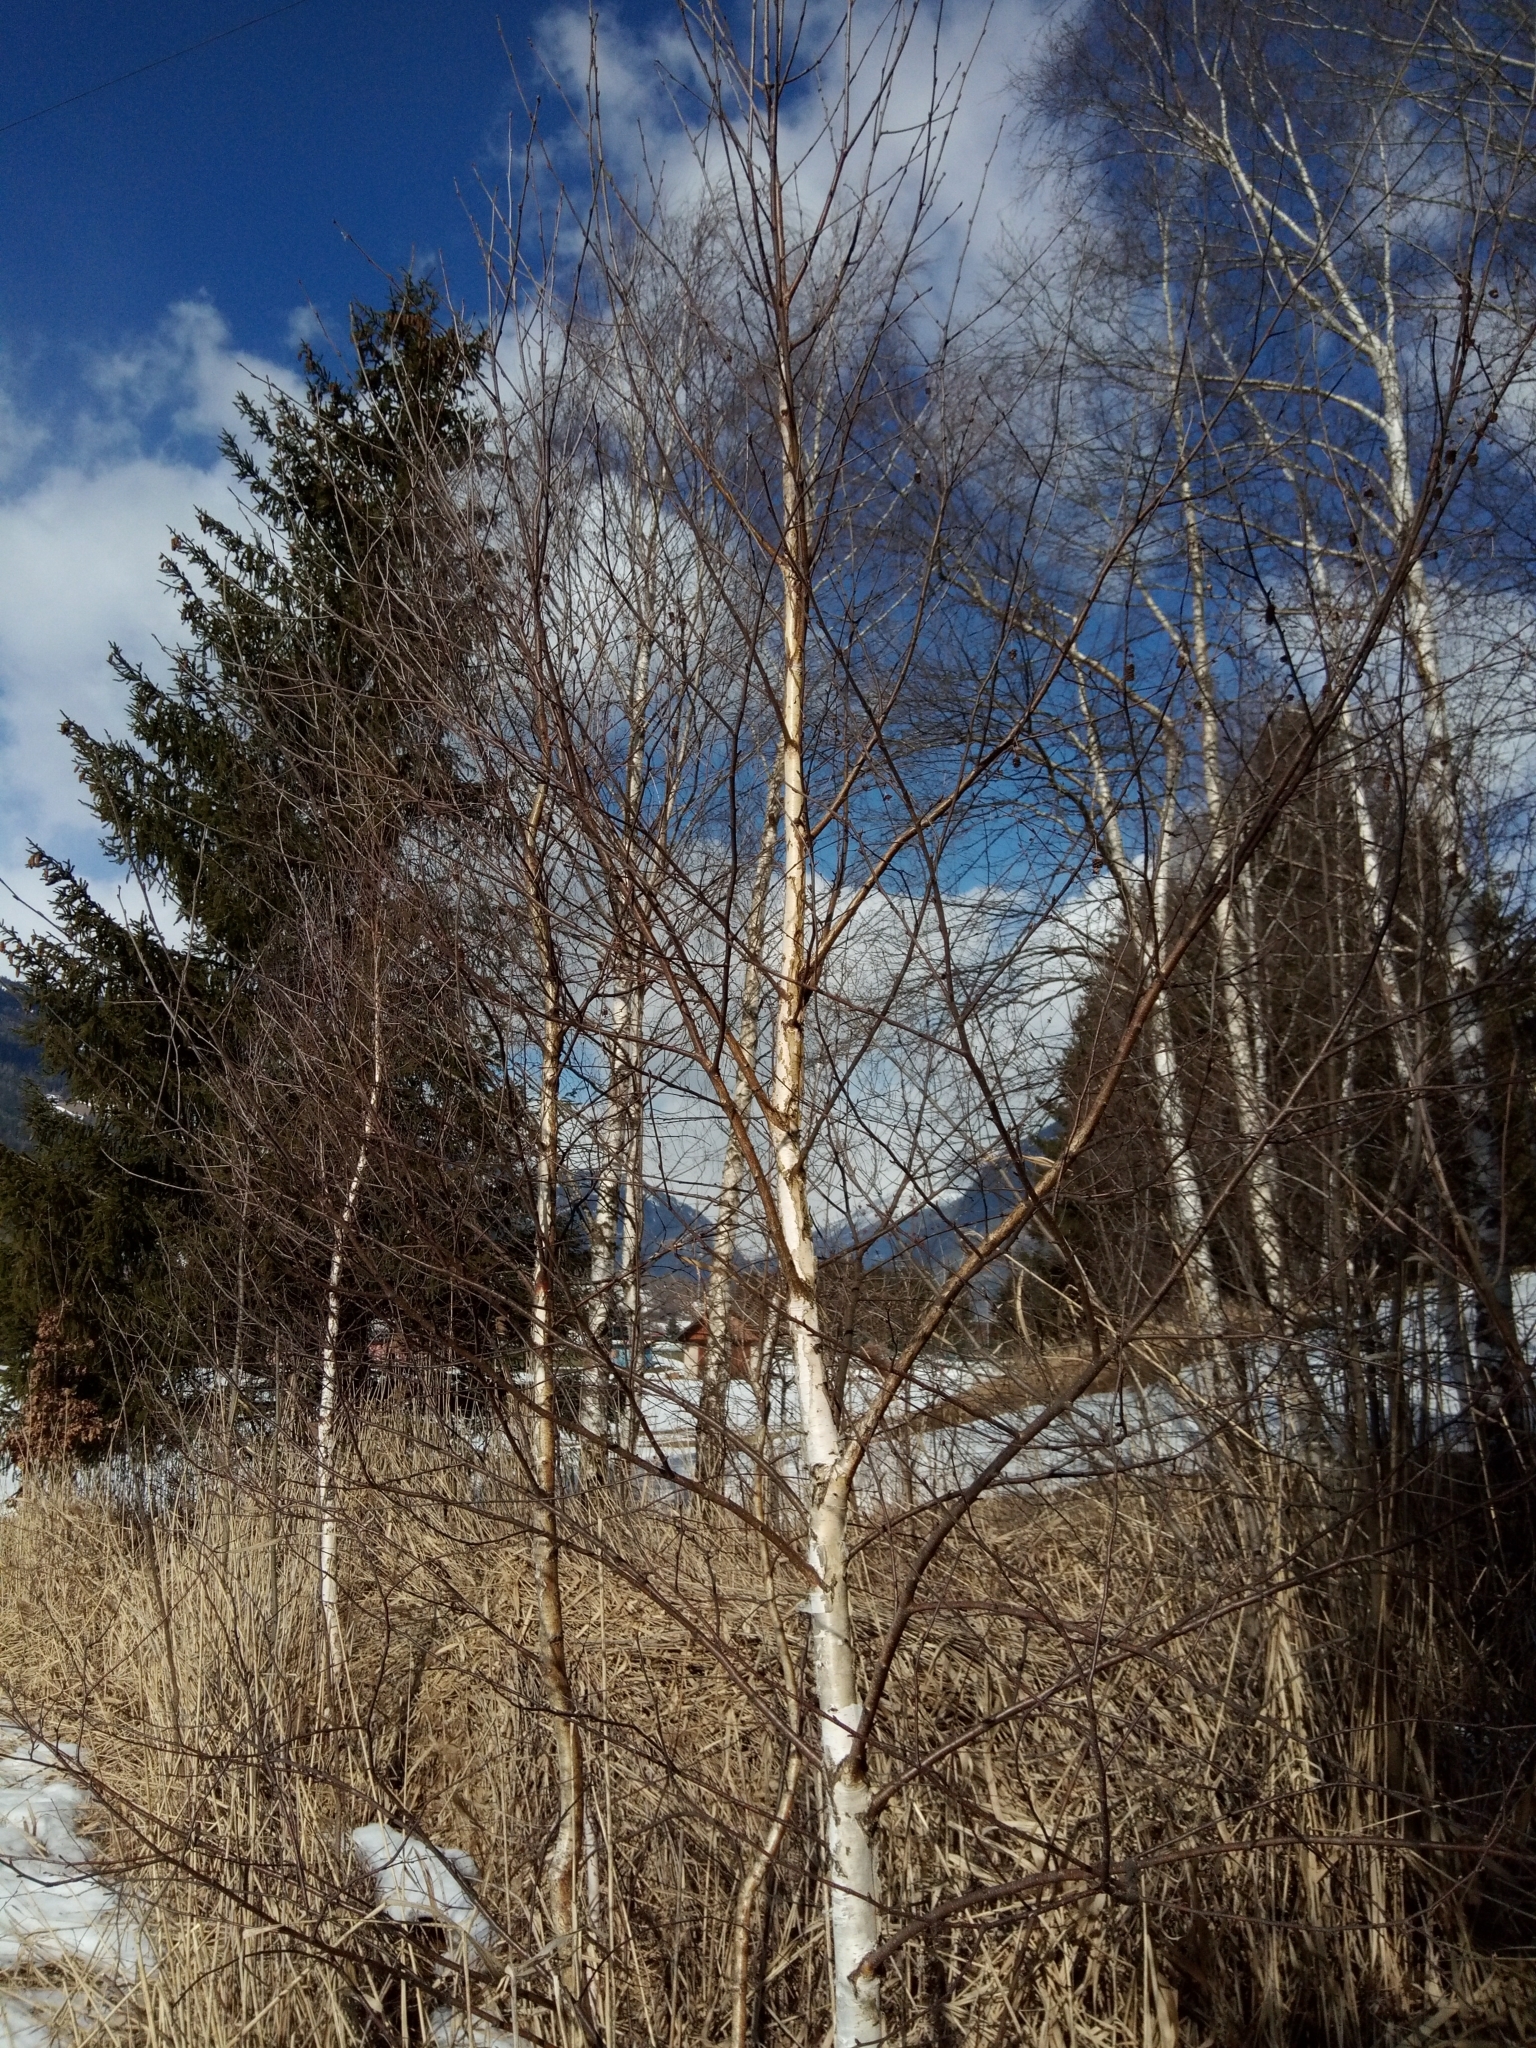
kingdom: Plantae
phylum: Tracheophyta
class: Magnoliopsida
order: Fagales
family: Betulaceae
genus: Betula
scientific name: Betula pendula
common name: Silver birch
